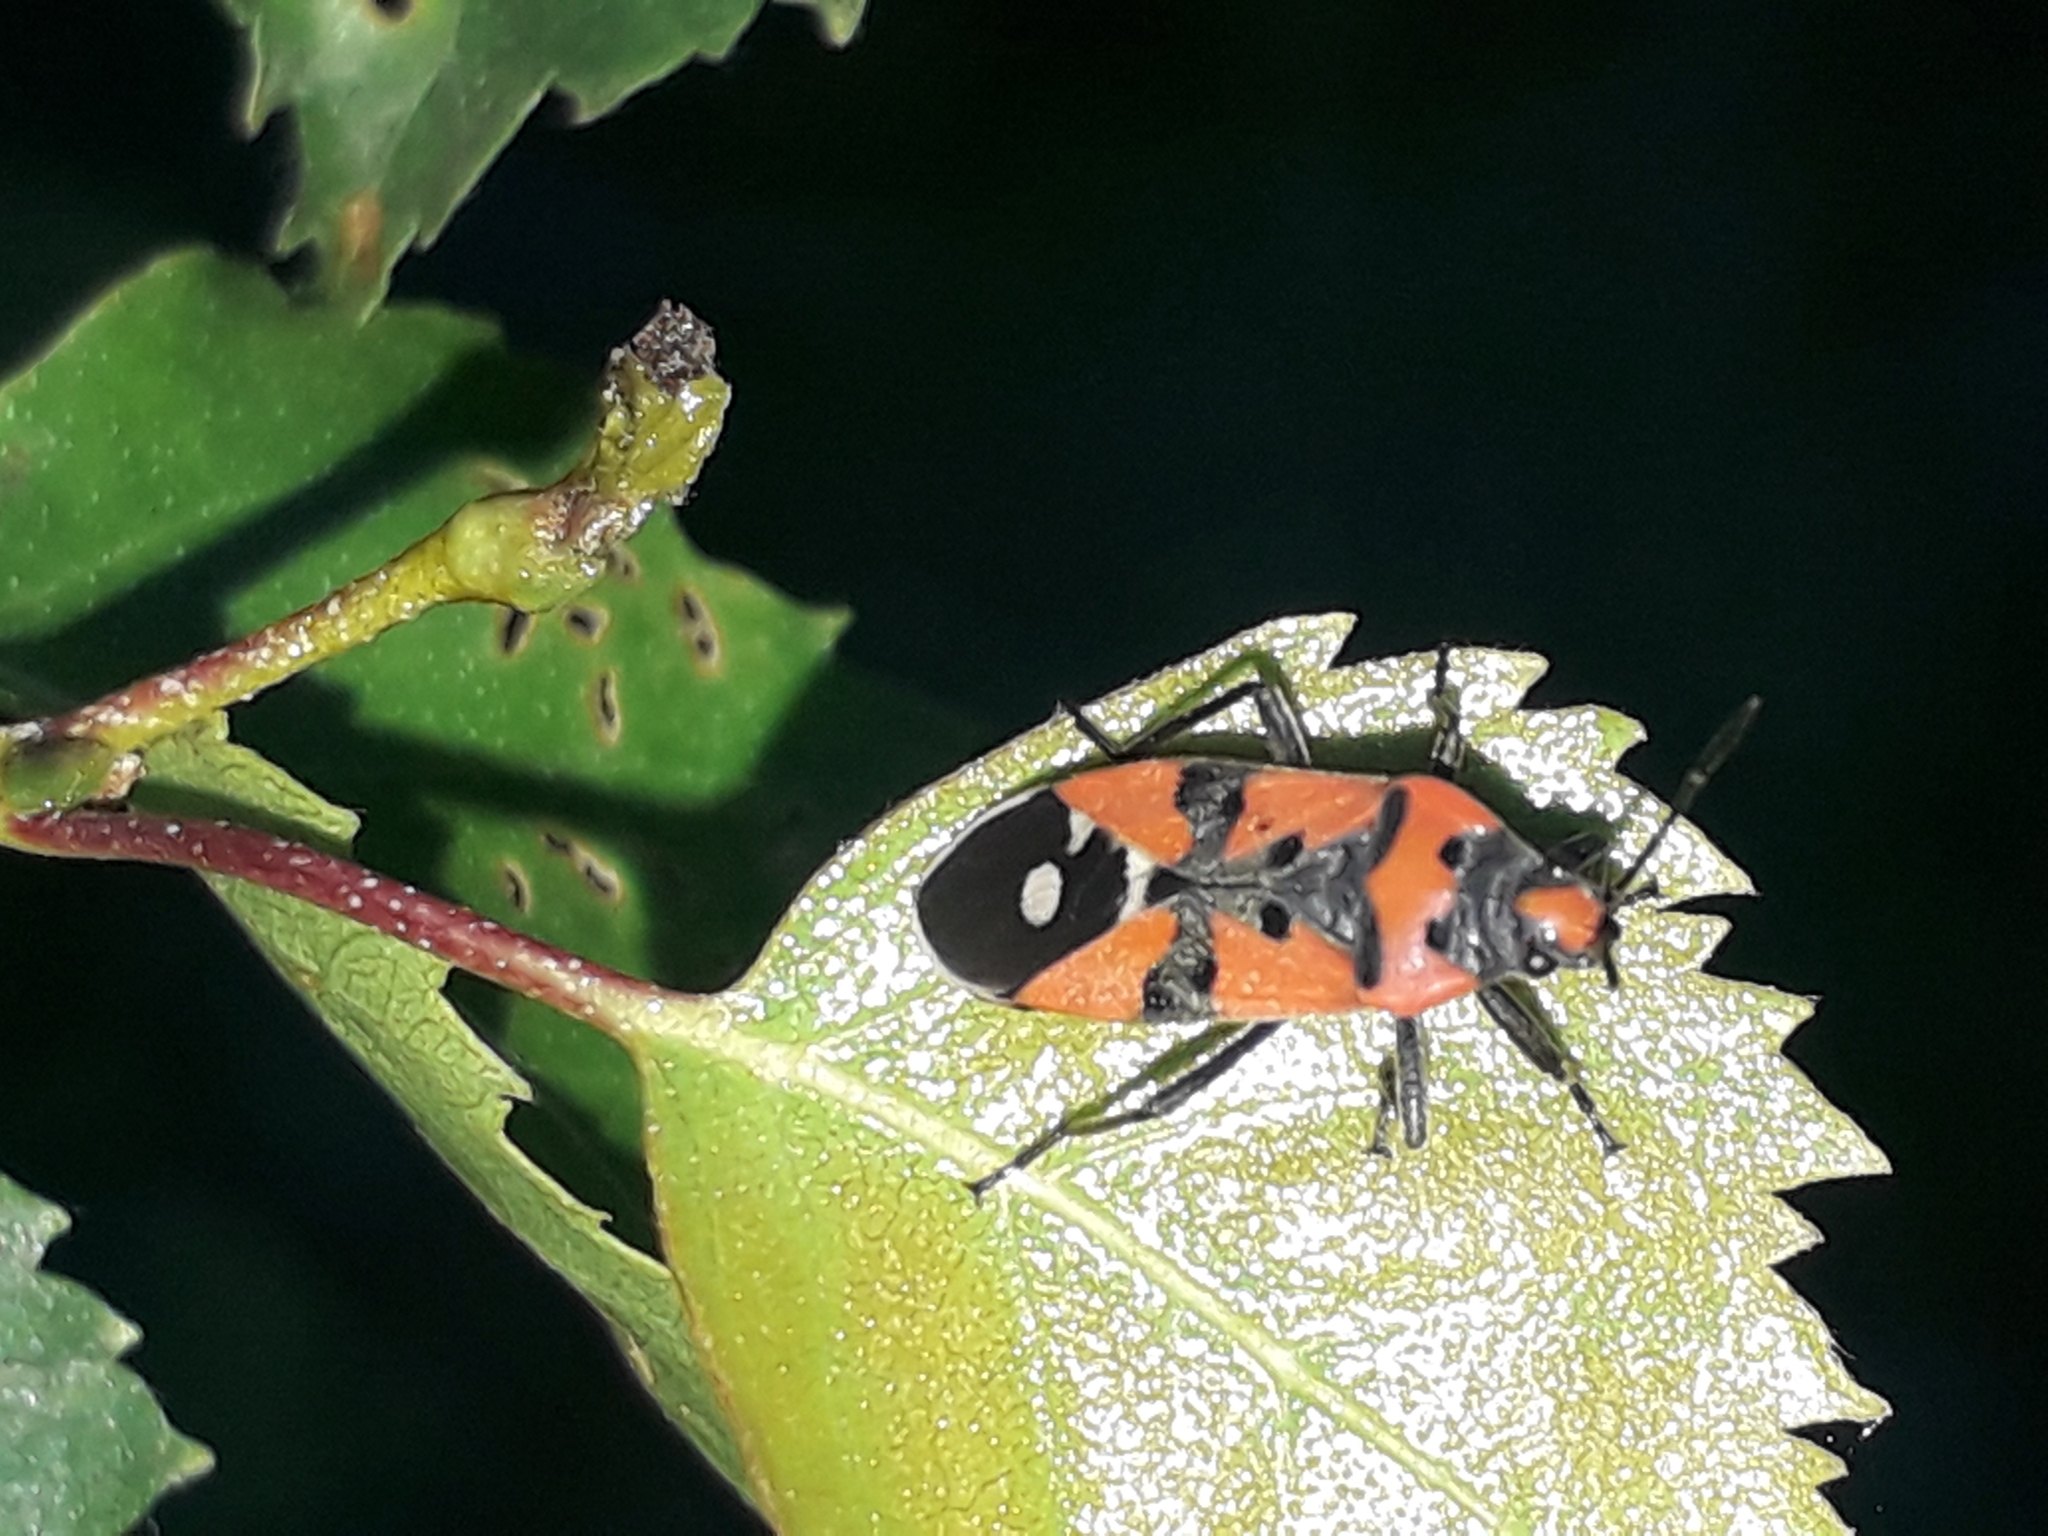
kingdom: Animalia
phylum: Arthropoda
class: Insecta
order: Hemiptera
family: Lygaeidae
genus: Lygaeus
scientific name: Lygaeus
